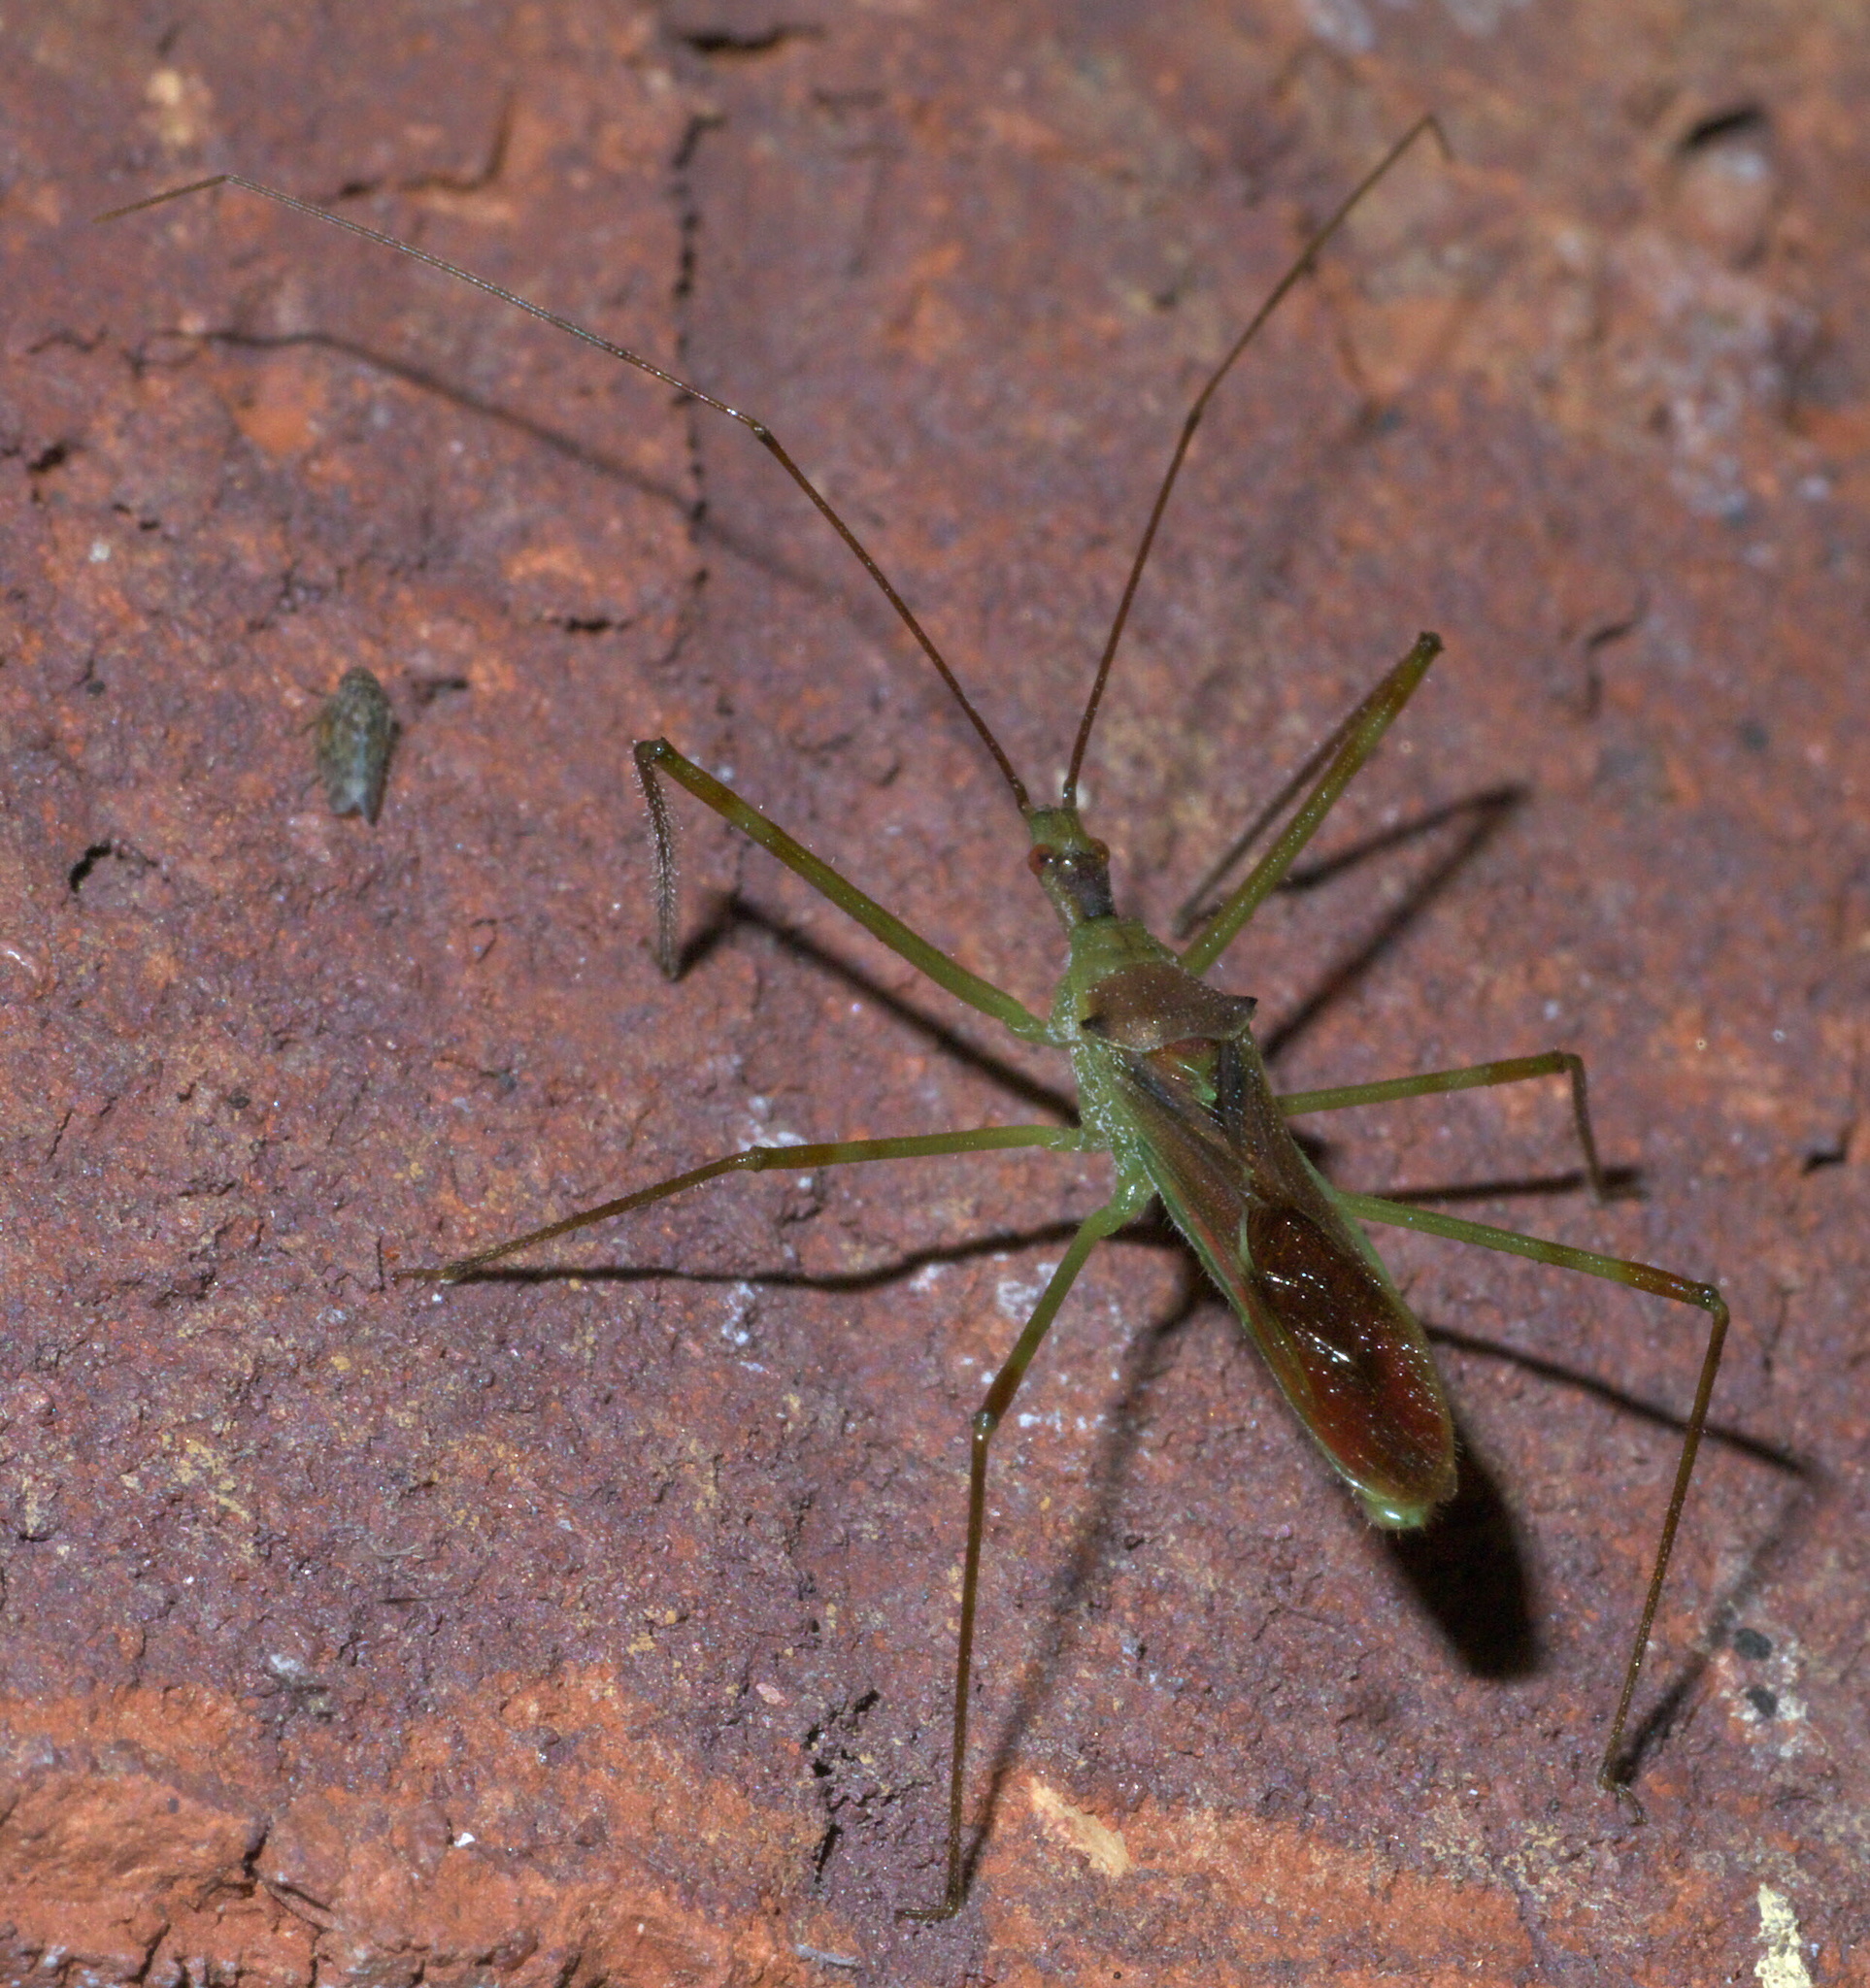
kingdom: Animalia
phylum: Arthropoda
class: Insecta
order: Hemiptera
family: Reduviidae
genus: Zelus
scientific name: Zelus luridus
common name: Pale green assassin bug
